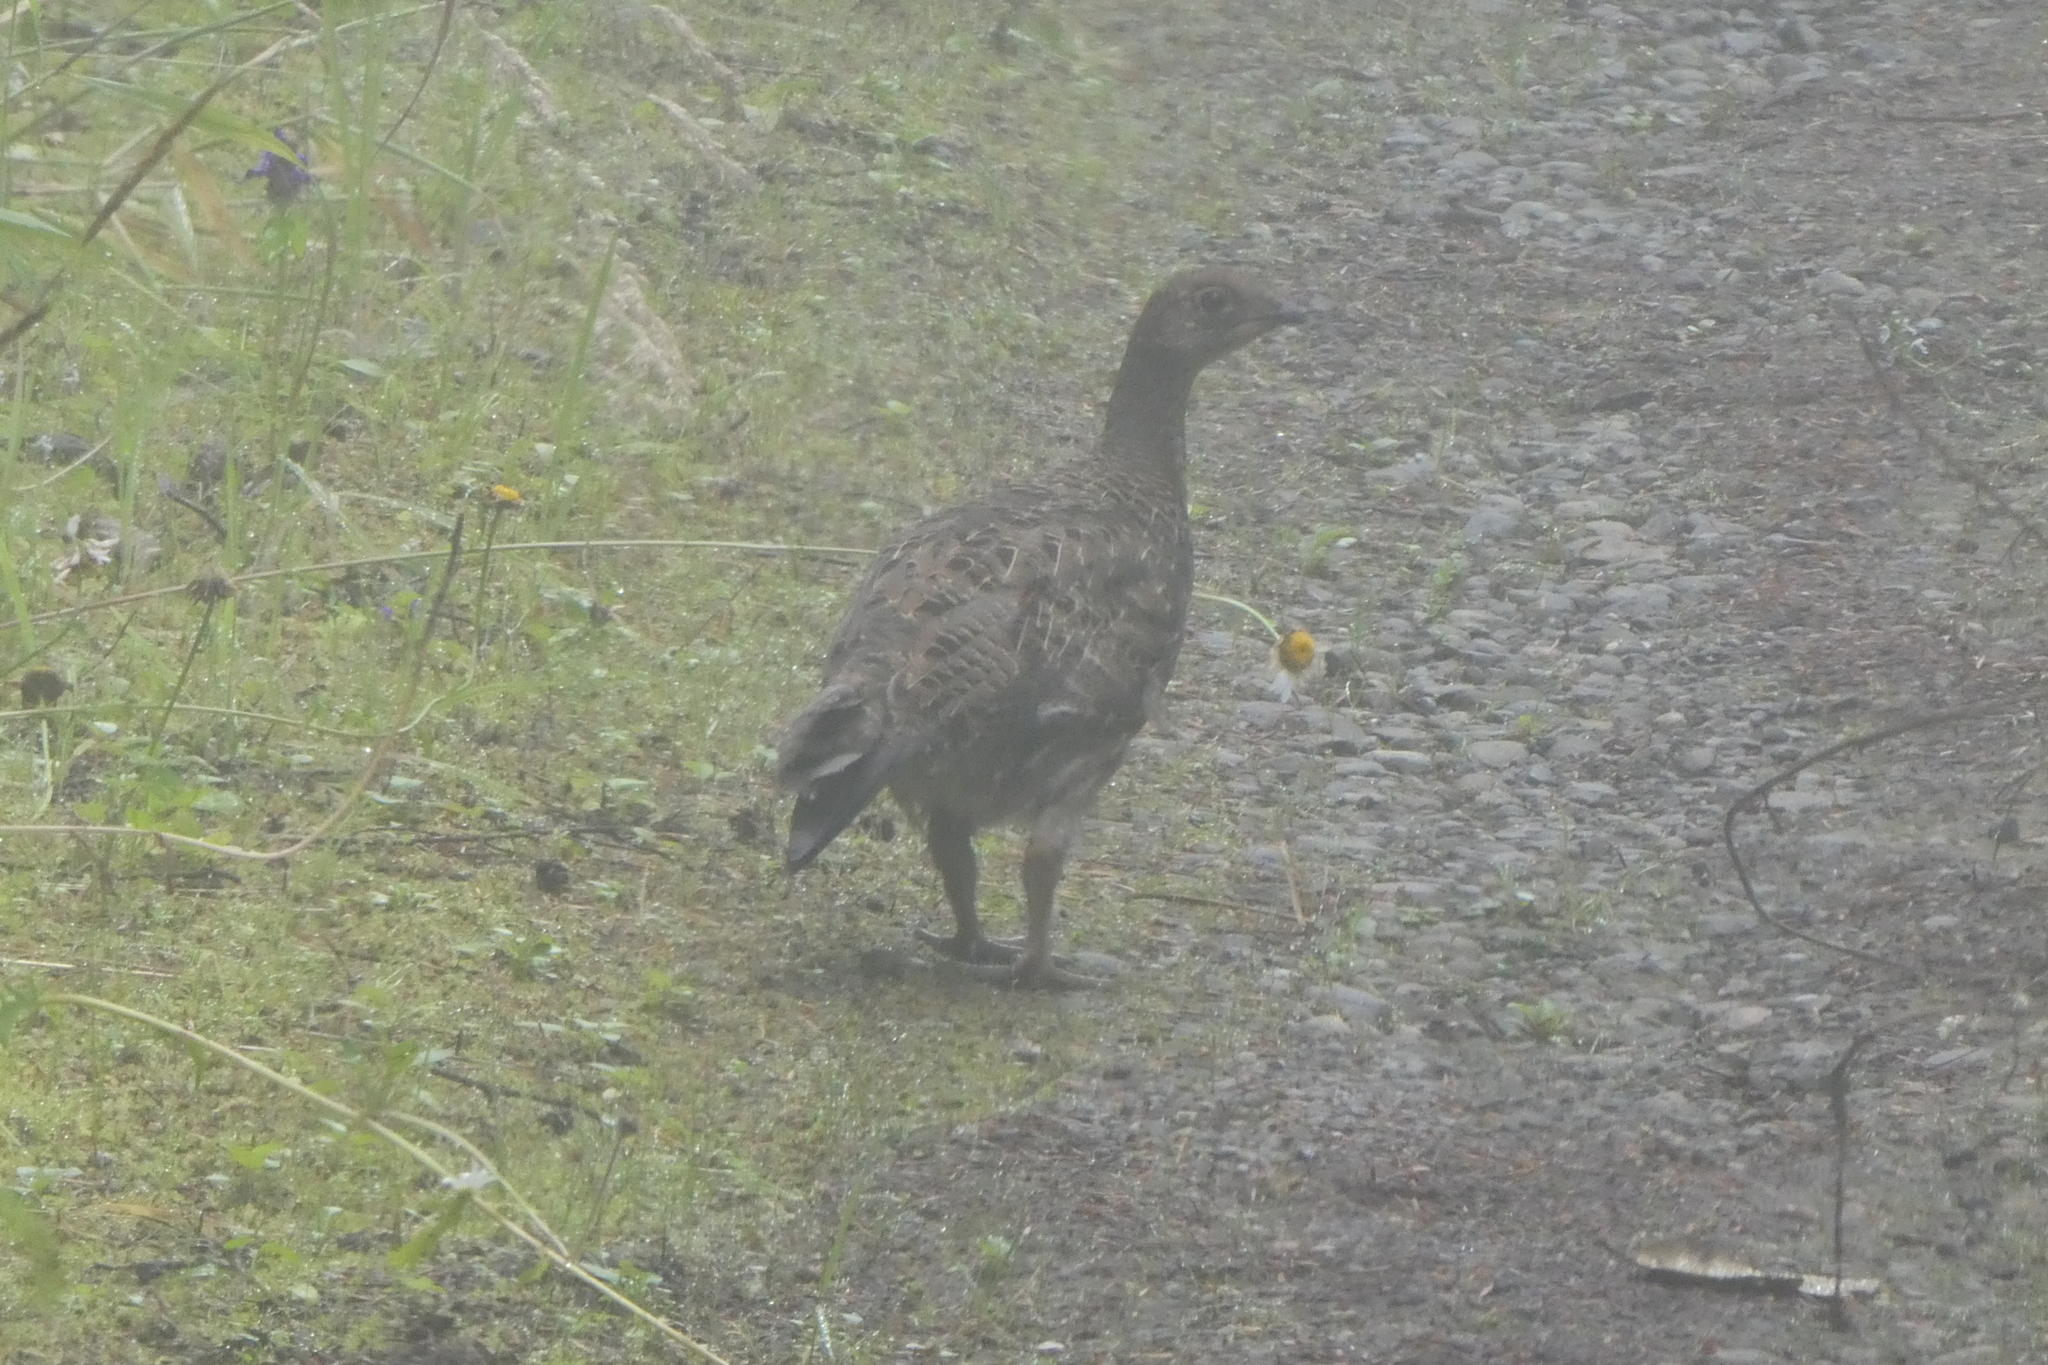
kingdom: Animalia
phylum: Chordata
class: Aves
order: Galliformes
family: Phasianidae
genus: Dendragapus
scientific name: Dendragapus fuliginosus
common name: Sooty grouse
